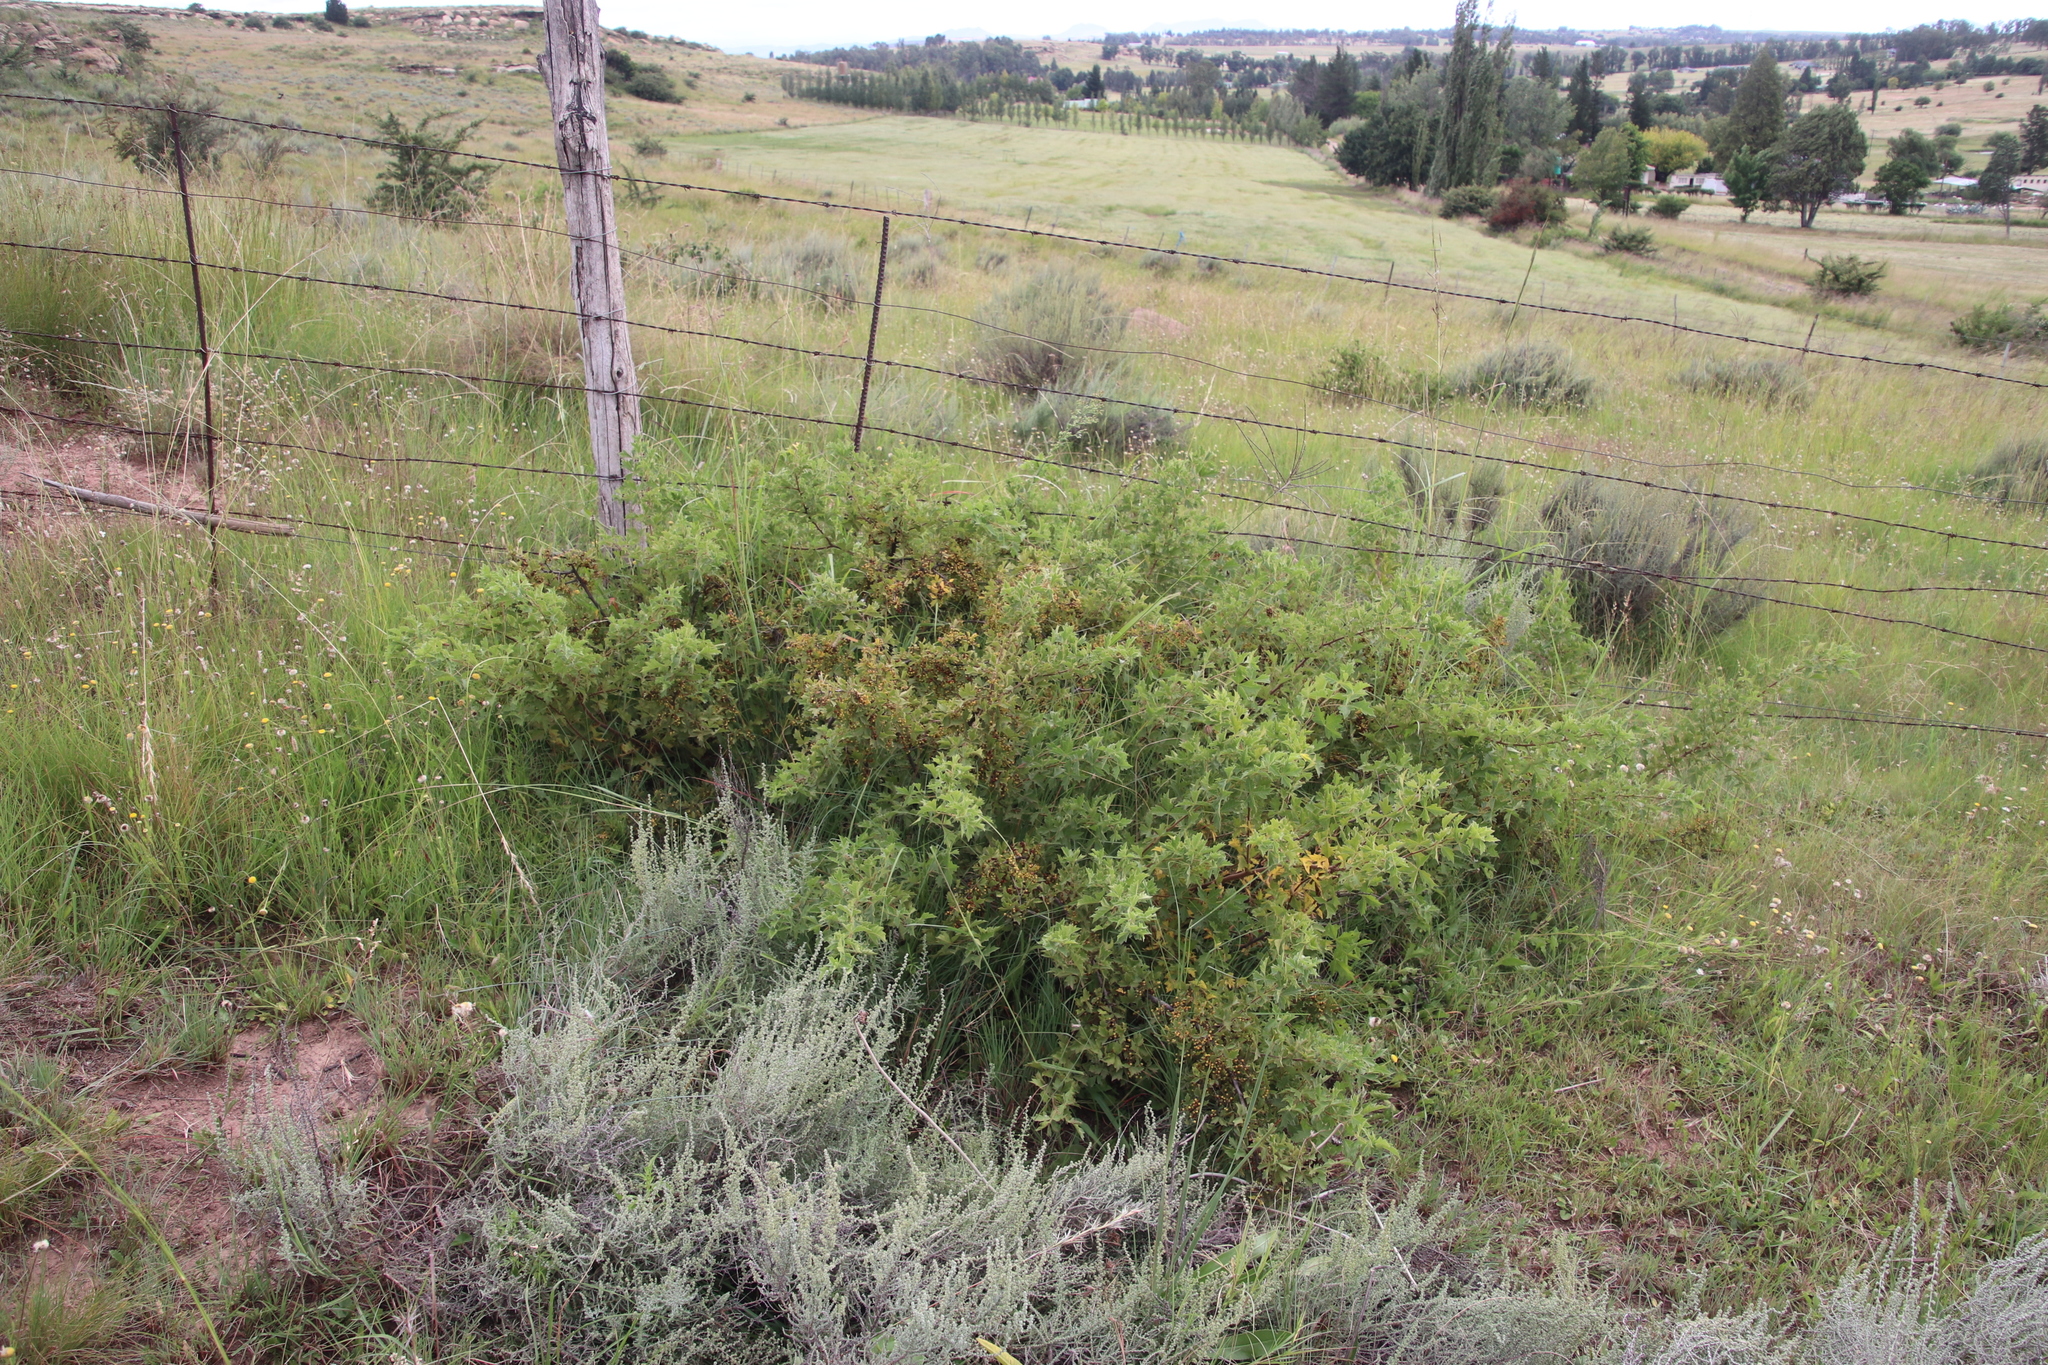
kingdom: Plantae
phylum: Tracheophyta
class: Magnoliopsida
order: Sapindales
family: Anacardiaceae
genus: Searsia
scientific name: Searsia dentata
